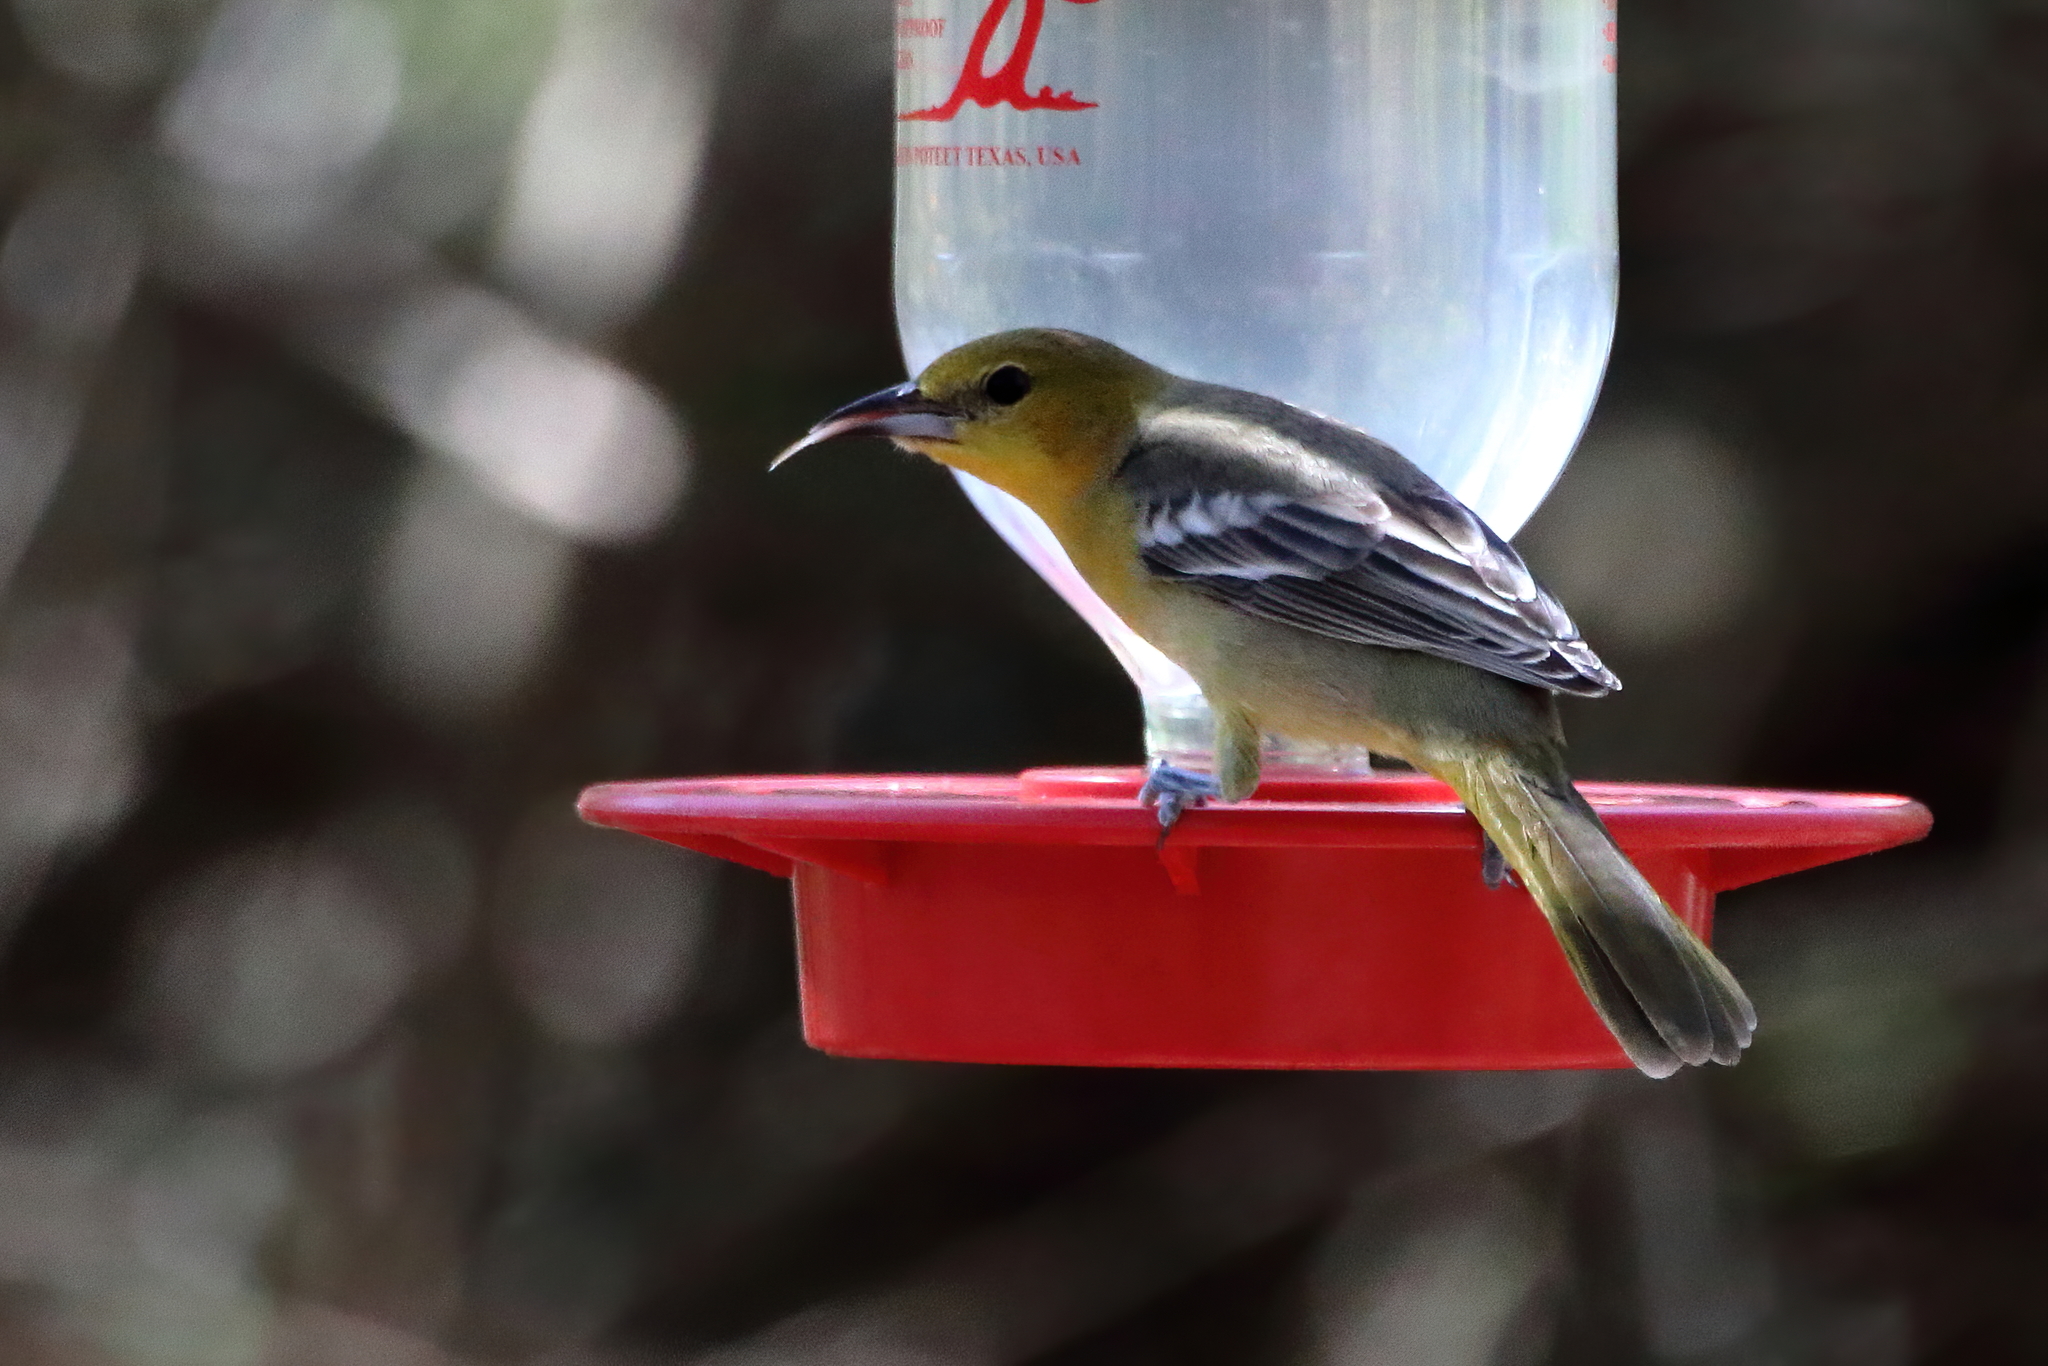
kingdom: Animalia
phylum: Chordata
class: Aves
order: Passeriformes
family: Icteridae
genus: Icterus
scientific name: Icterus cucullatus
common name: Hooded oriole
